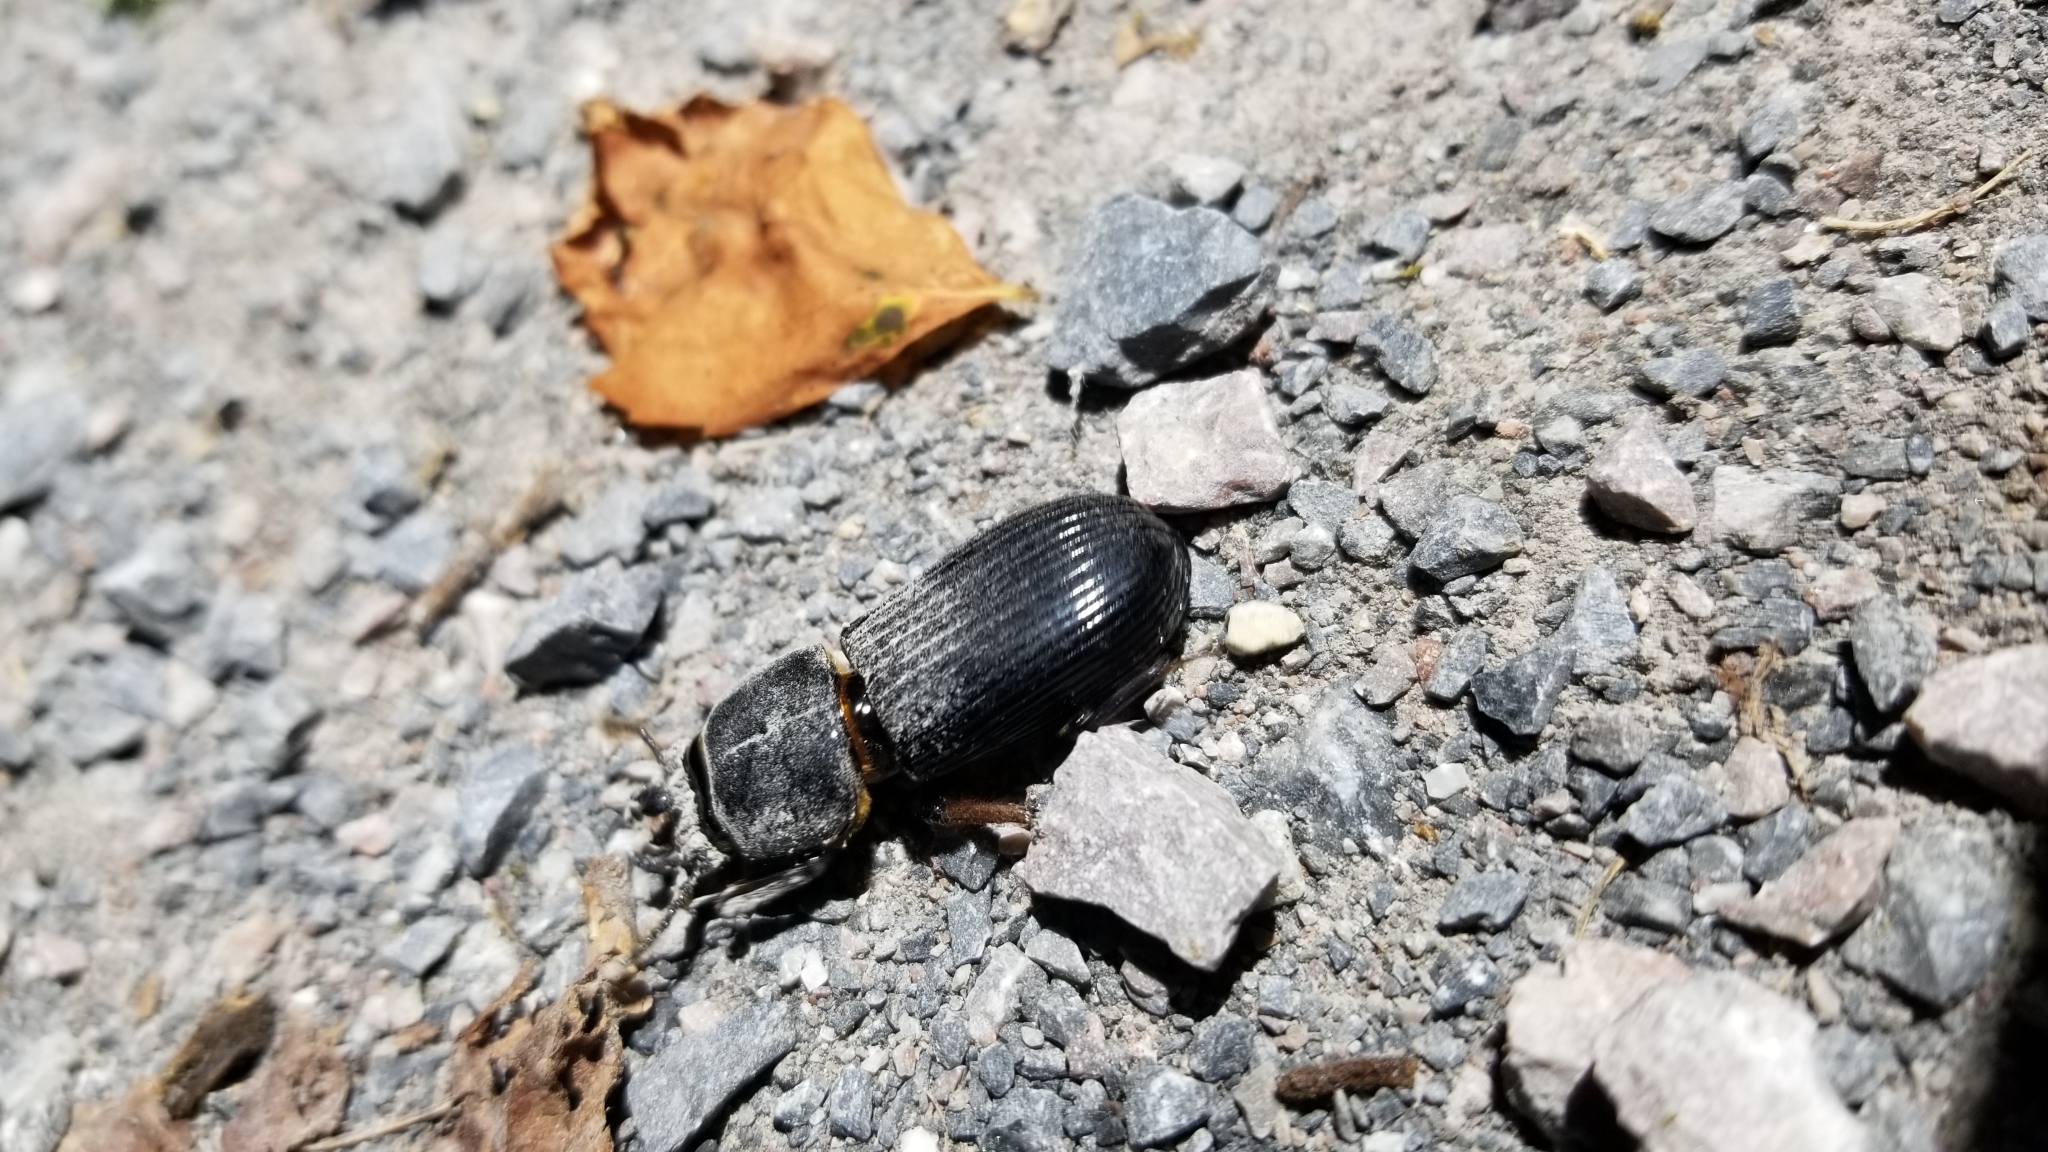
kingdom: Animalia
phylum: Arthropoda
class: Insecta
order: Coleoptera
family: Passalidae
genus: Odontotaenius
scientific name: Odontotaenius disjunctus
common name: Patent leather beetle
